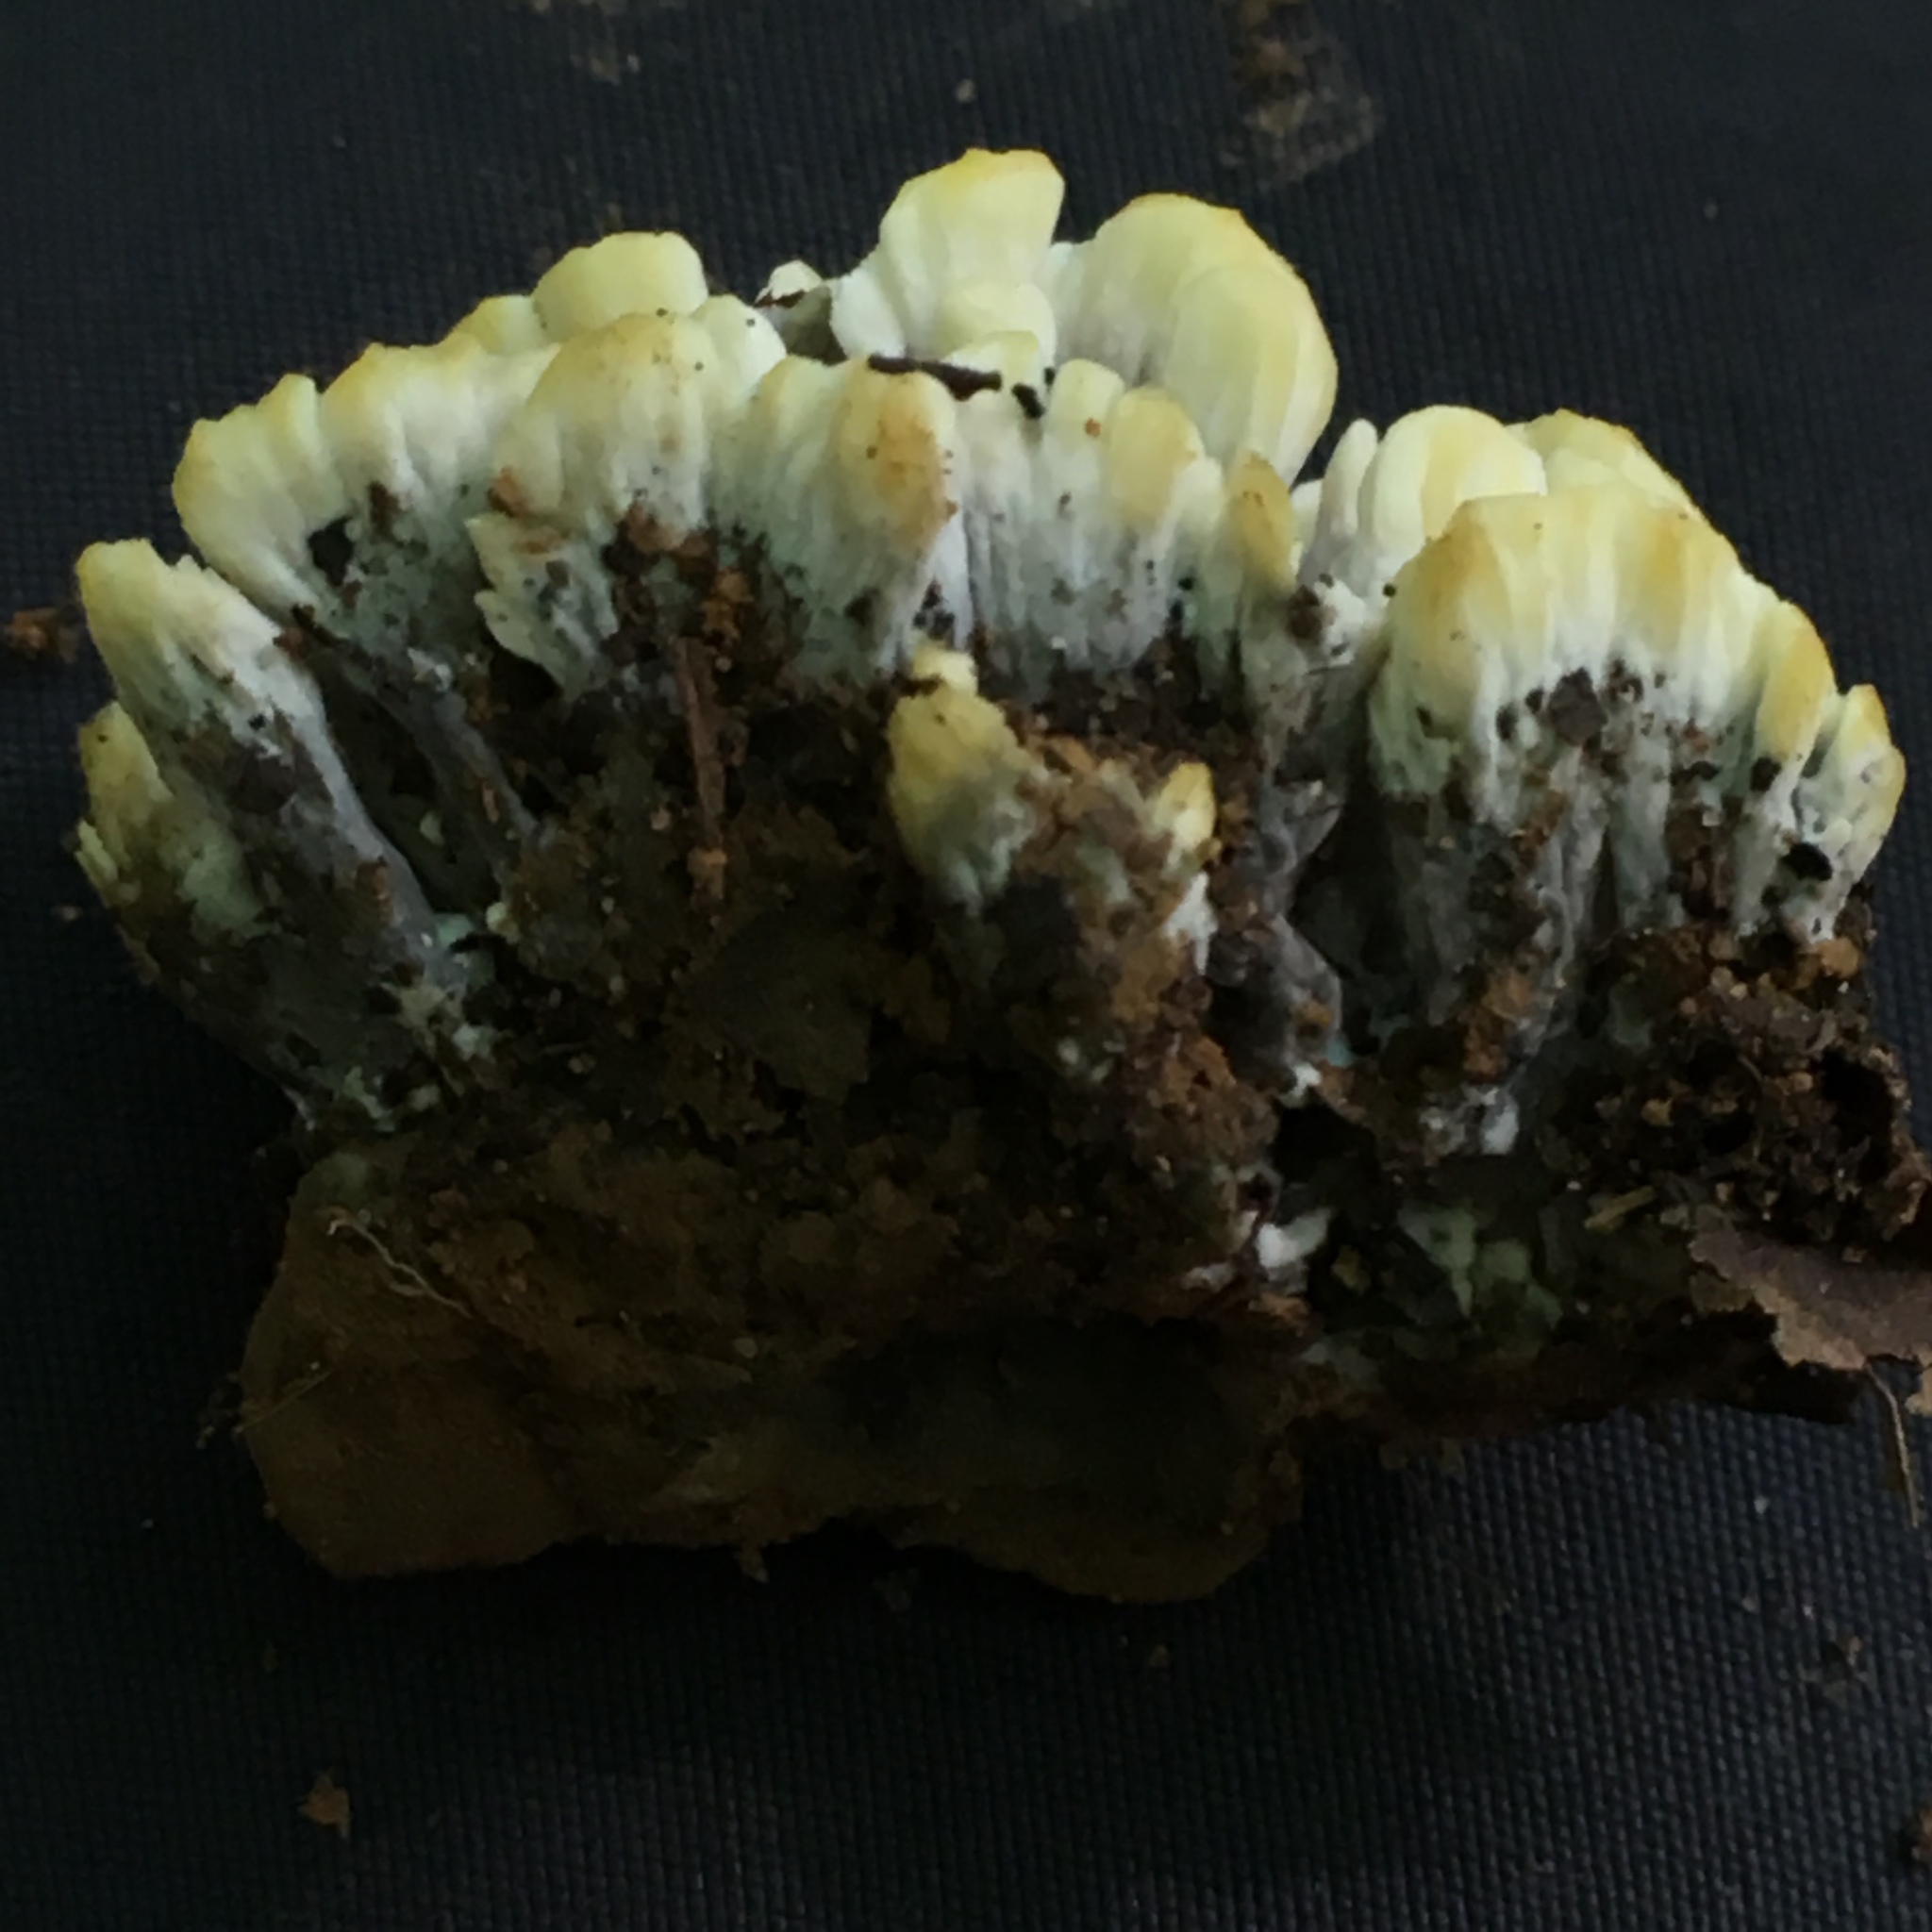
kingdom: Fungi
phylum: Basidiomycota
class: Agaricomycetes
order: Thelephorales
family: Thelephoraceae
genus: Thelephora
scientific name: Thelephora vialis
